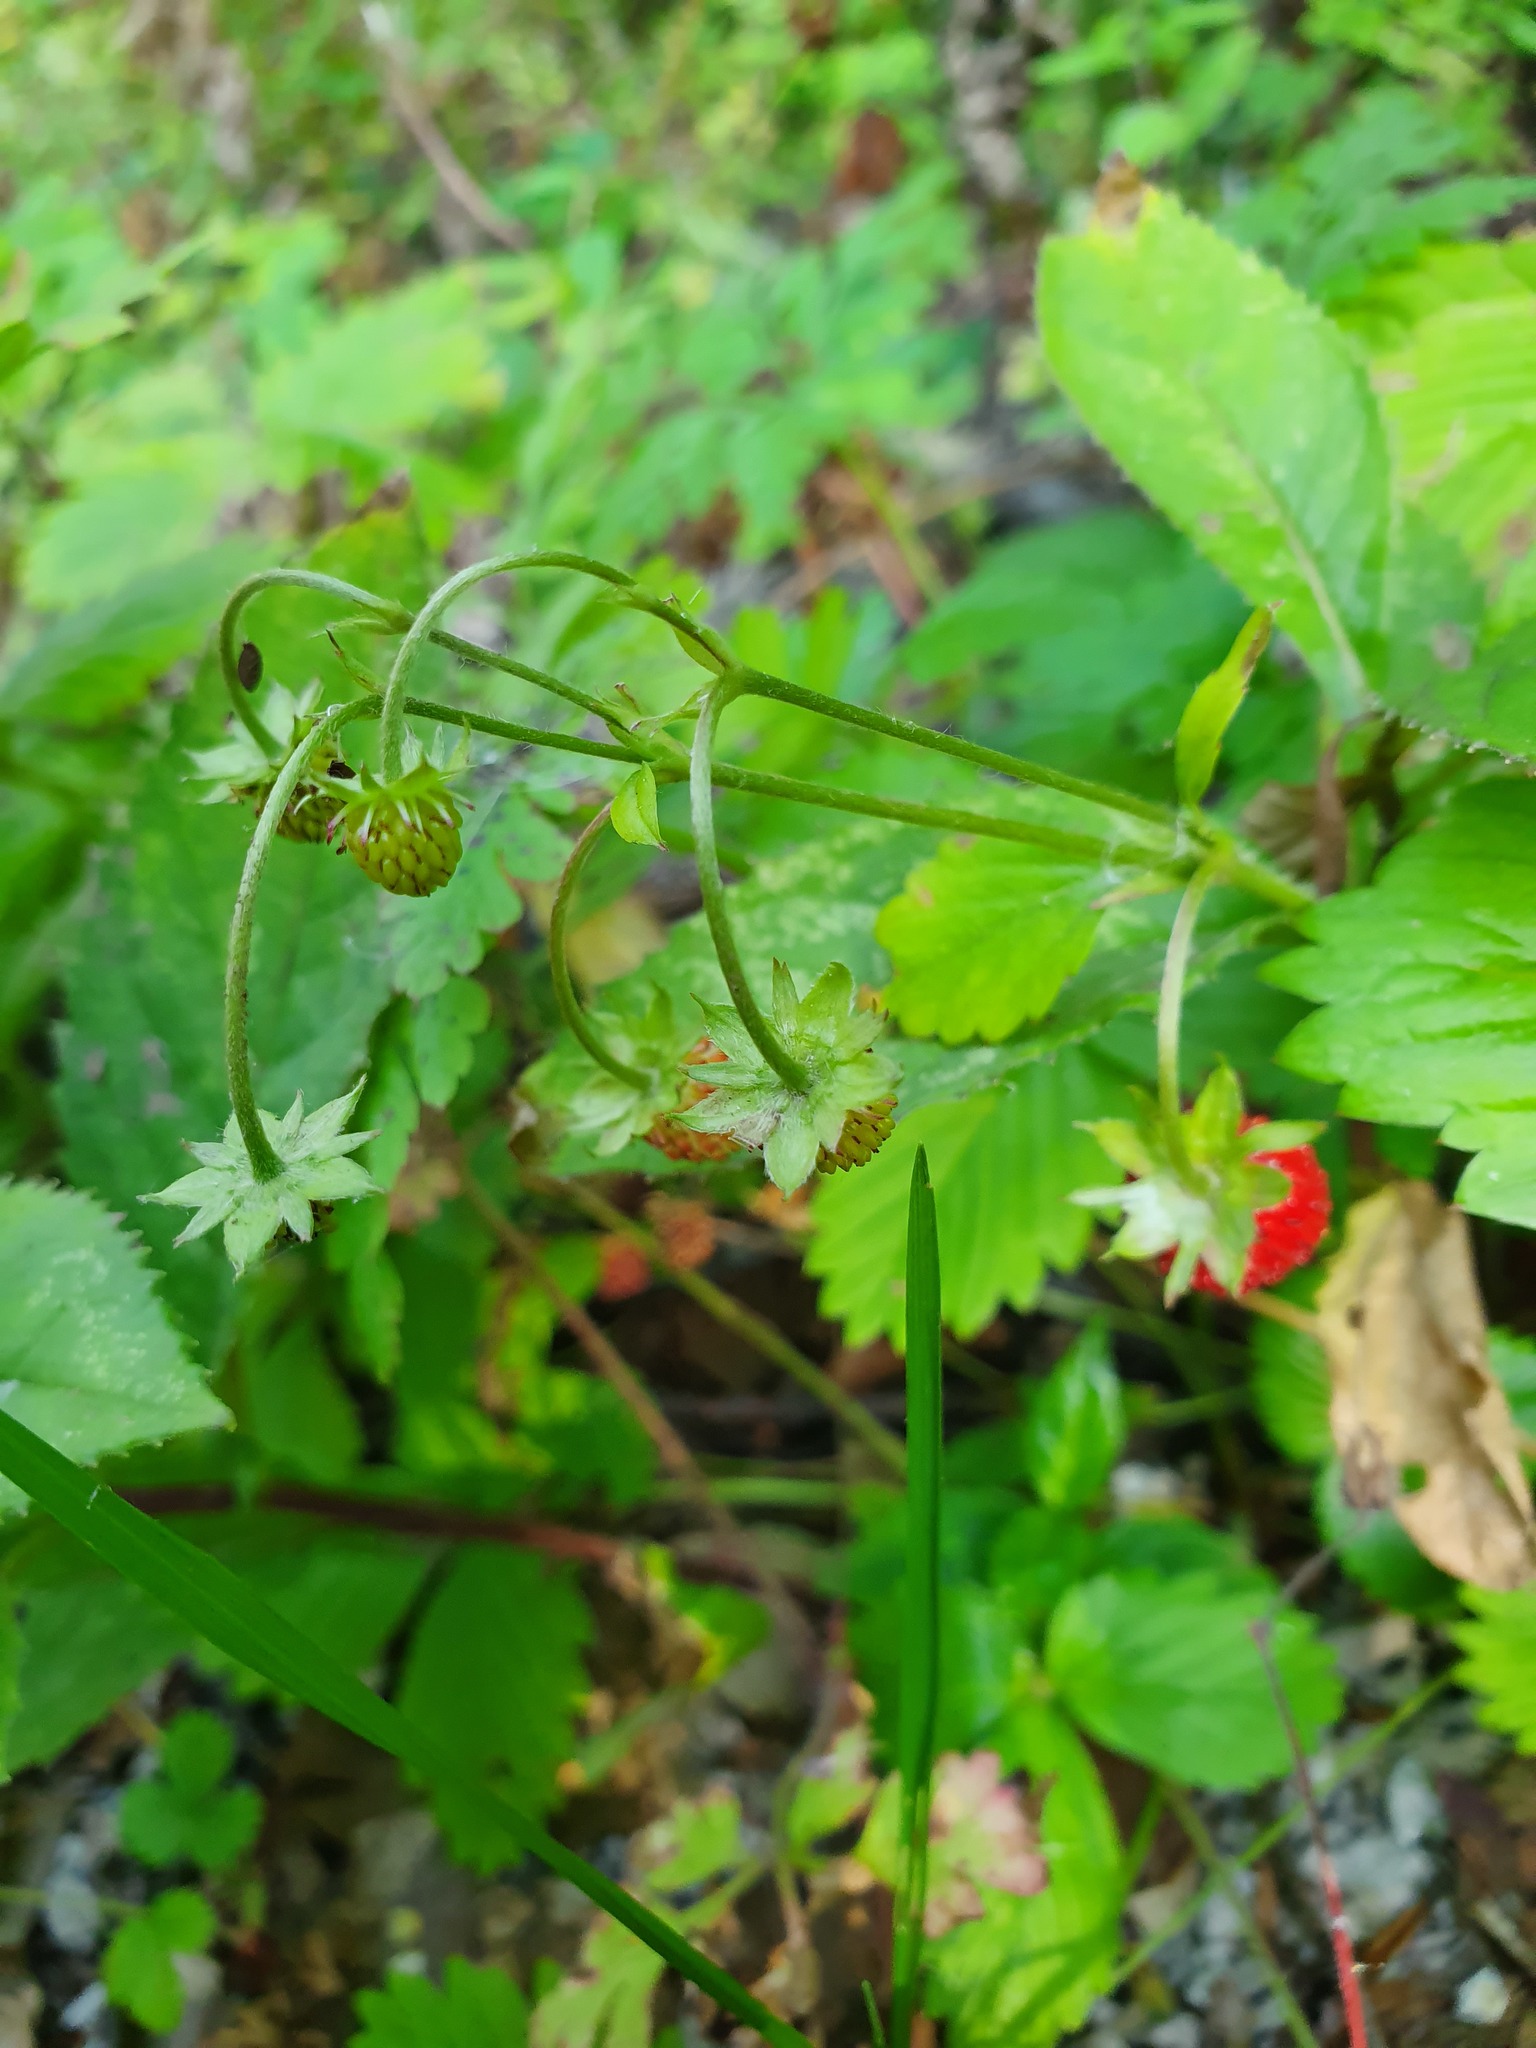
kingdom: Plantae
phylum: Tracheophyta
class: Magnoliopsida
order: Rosales
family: Rosaceae
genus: Fragaria
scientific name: Fragaria vesca
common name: Wild strawberry
